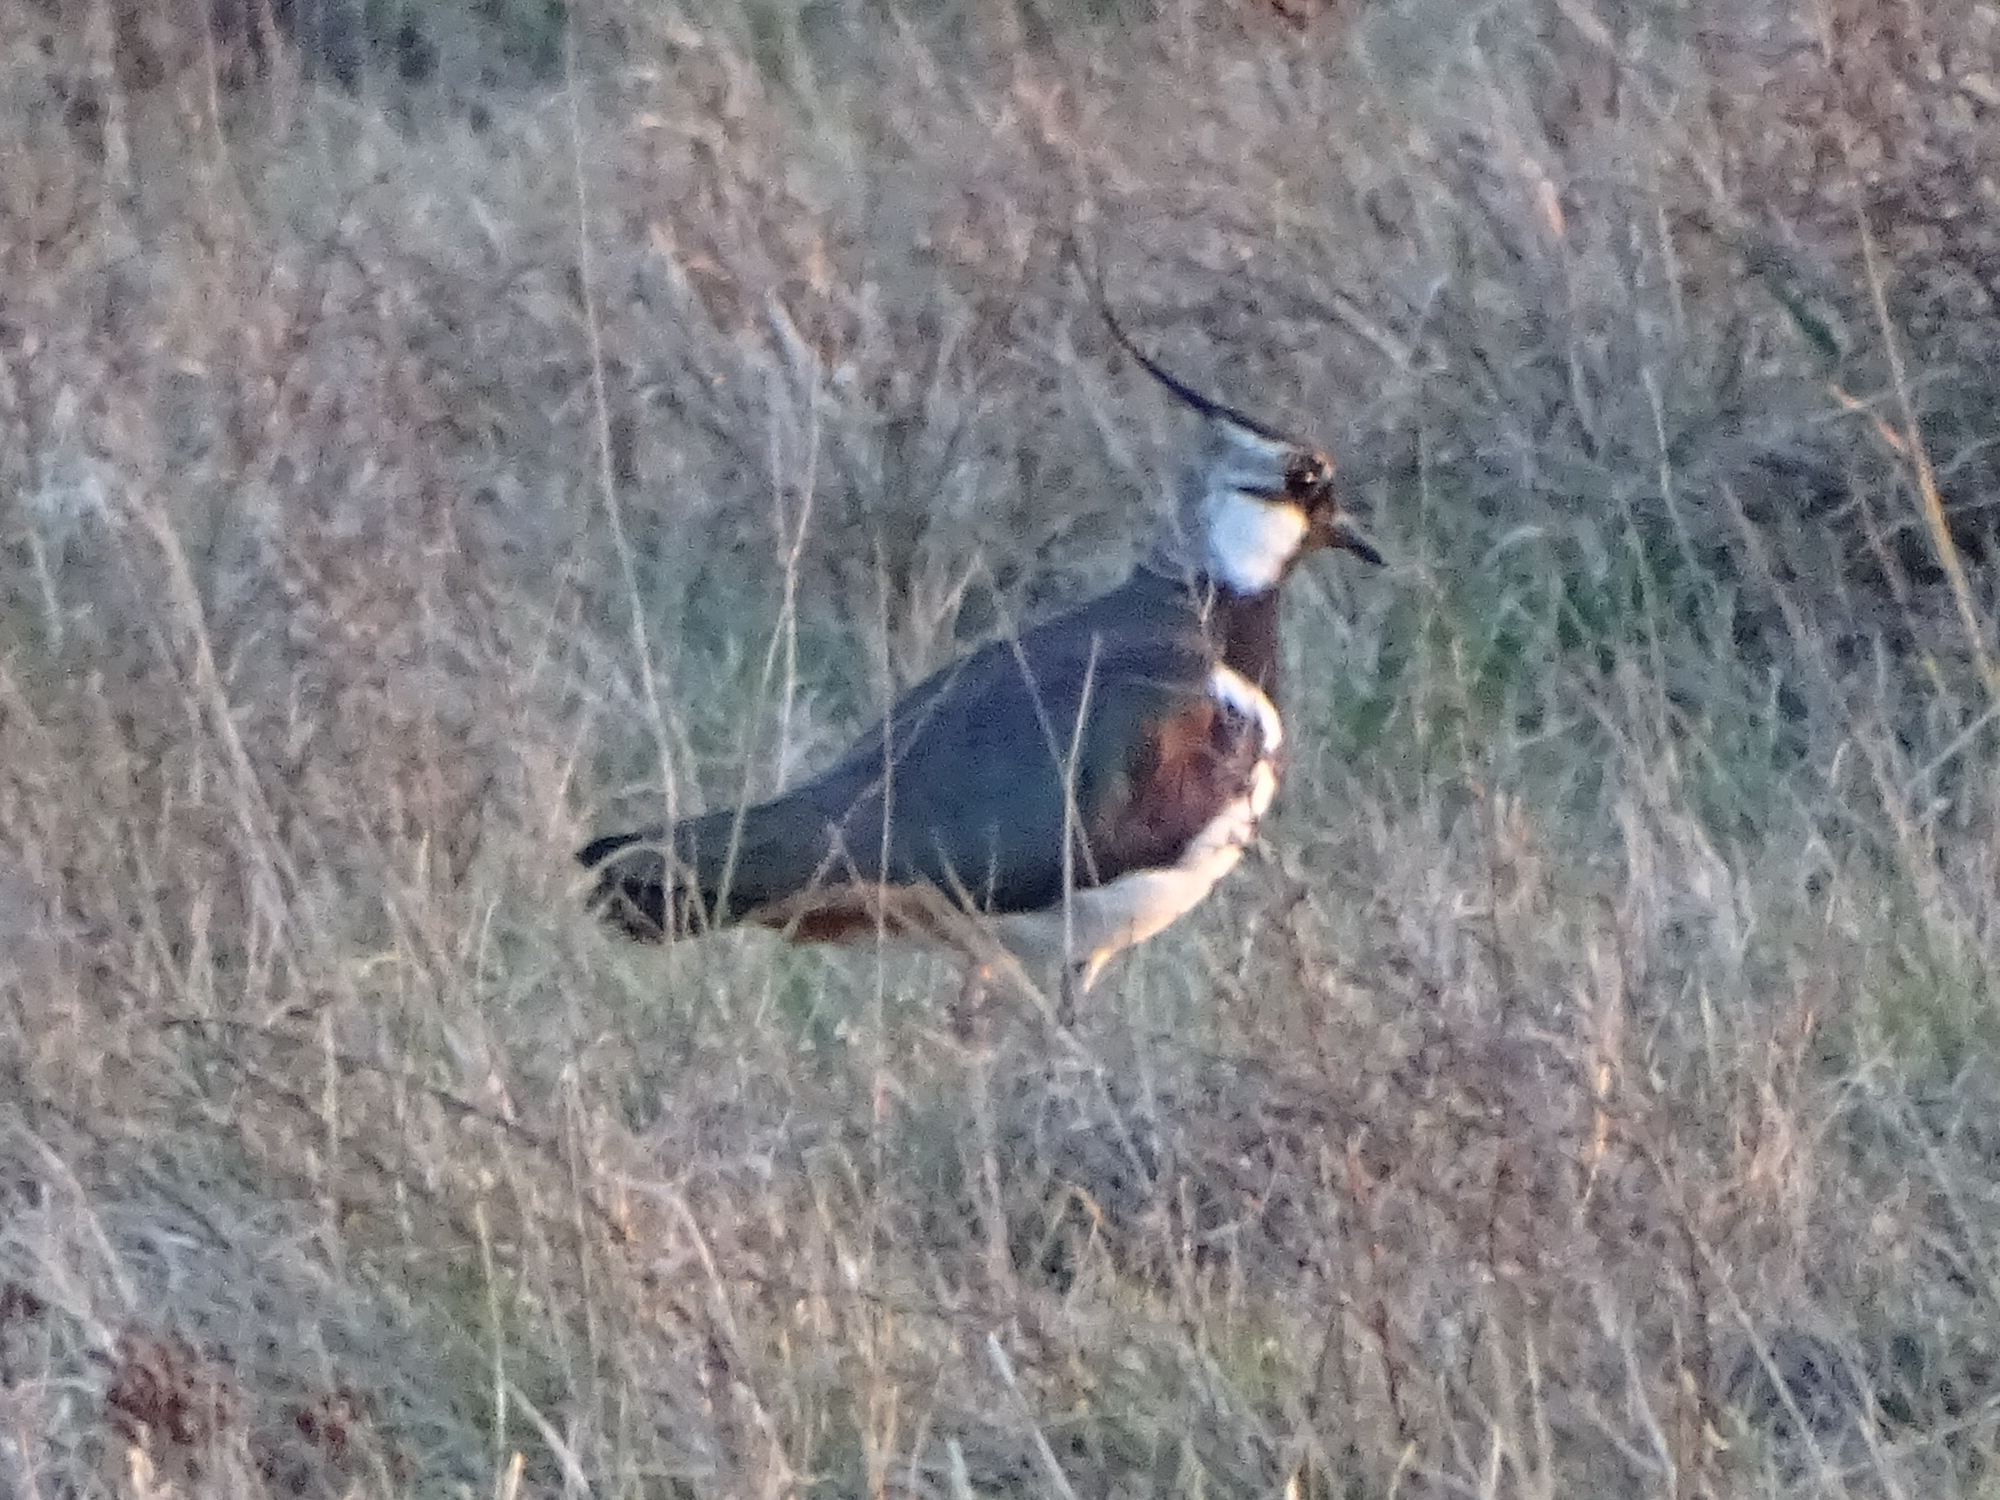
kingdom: Animalia
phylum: Chordata
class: Aves
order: Charadriiformes
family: Charadriidae
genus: Vanellus
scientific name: Vanellus vanellus
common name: Northern lapwing
